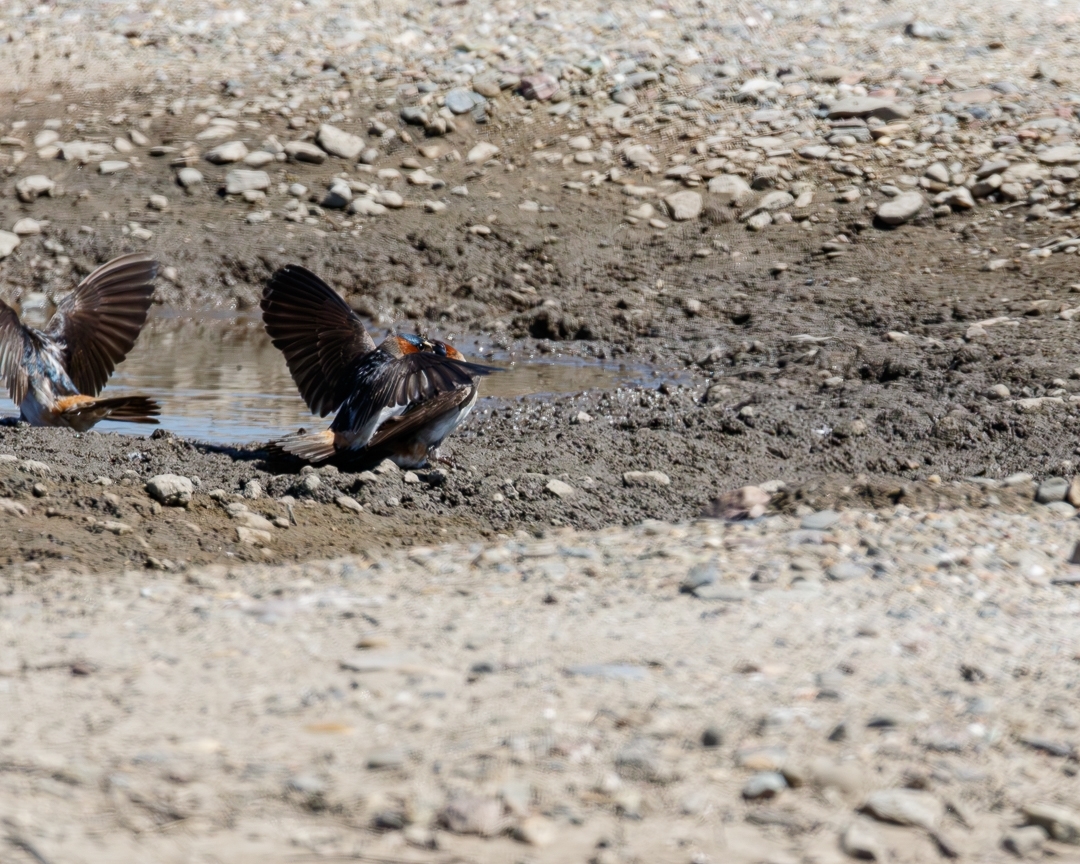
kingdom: Animalia
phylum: Chordata
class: Aves
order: Passeriformes
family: Hirundinidae
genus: Petrochelidon
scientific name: Petrochelidon pyrrhonota
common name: American cliff swallow
